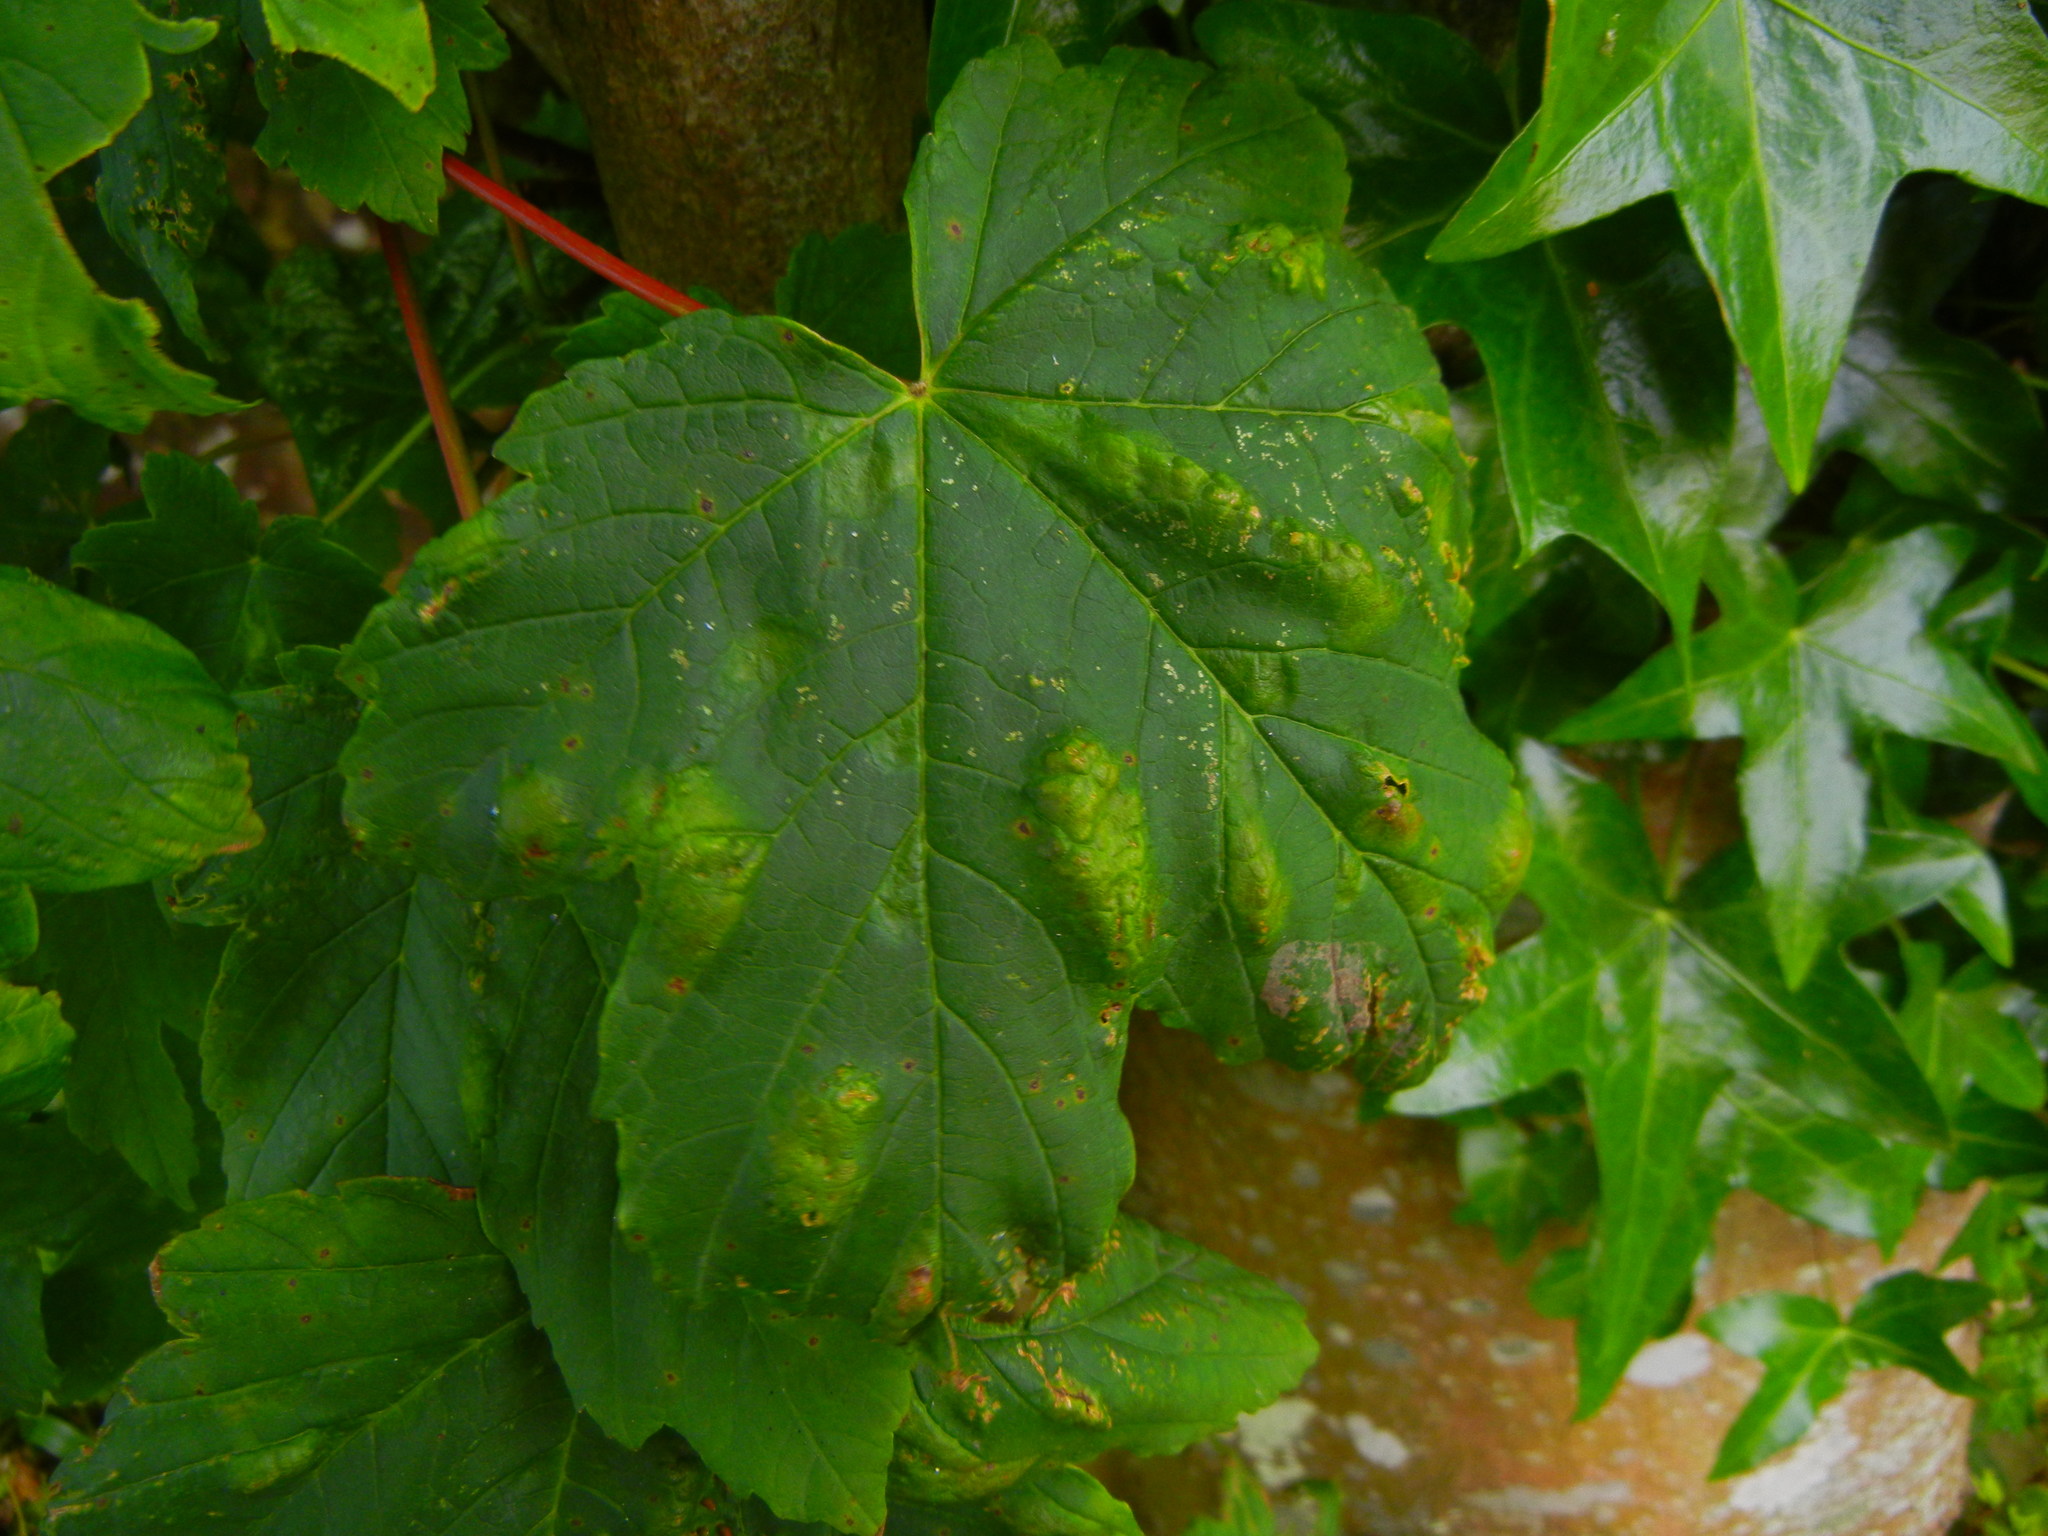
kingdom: Animalia
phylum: Arthropoda
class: Arachnida
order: Trombidiformes
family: Eriophyidae
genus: Aceria
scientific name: Aceria pseudoplatani
